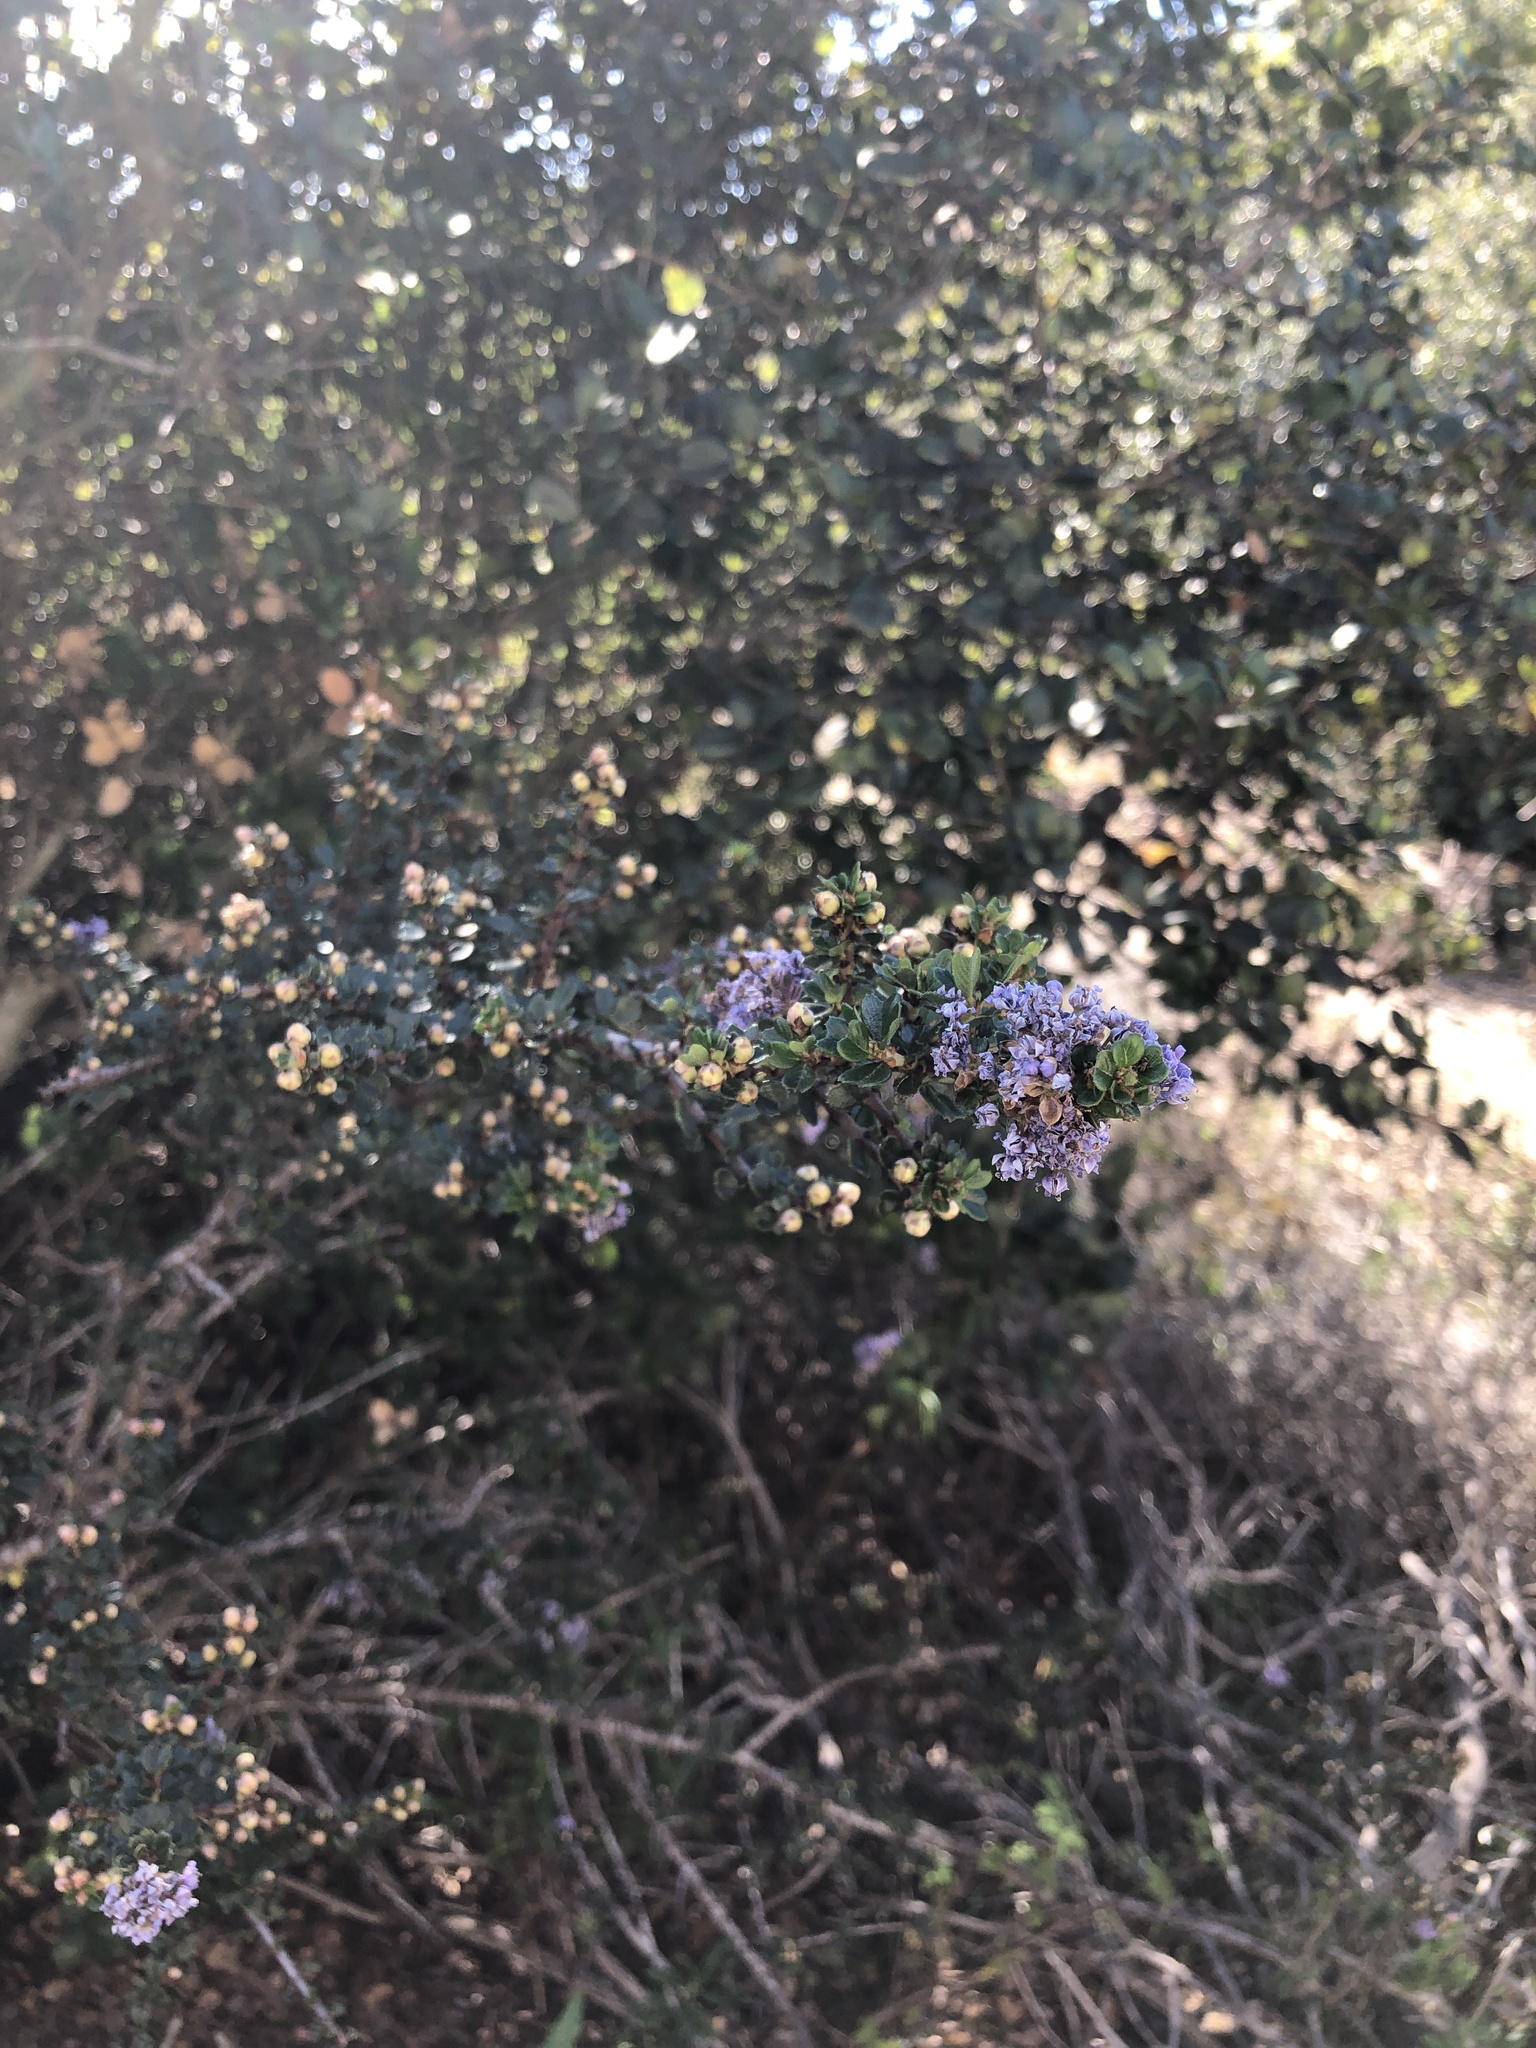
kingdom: Plantae
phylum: Tracheophyta
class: Magnoliopsida
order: Rosales
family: Rhamnaceae
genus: Ceanothus
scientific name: Ceanothus cuneatus
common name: Cuneate ceanothus
